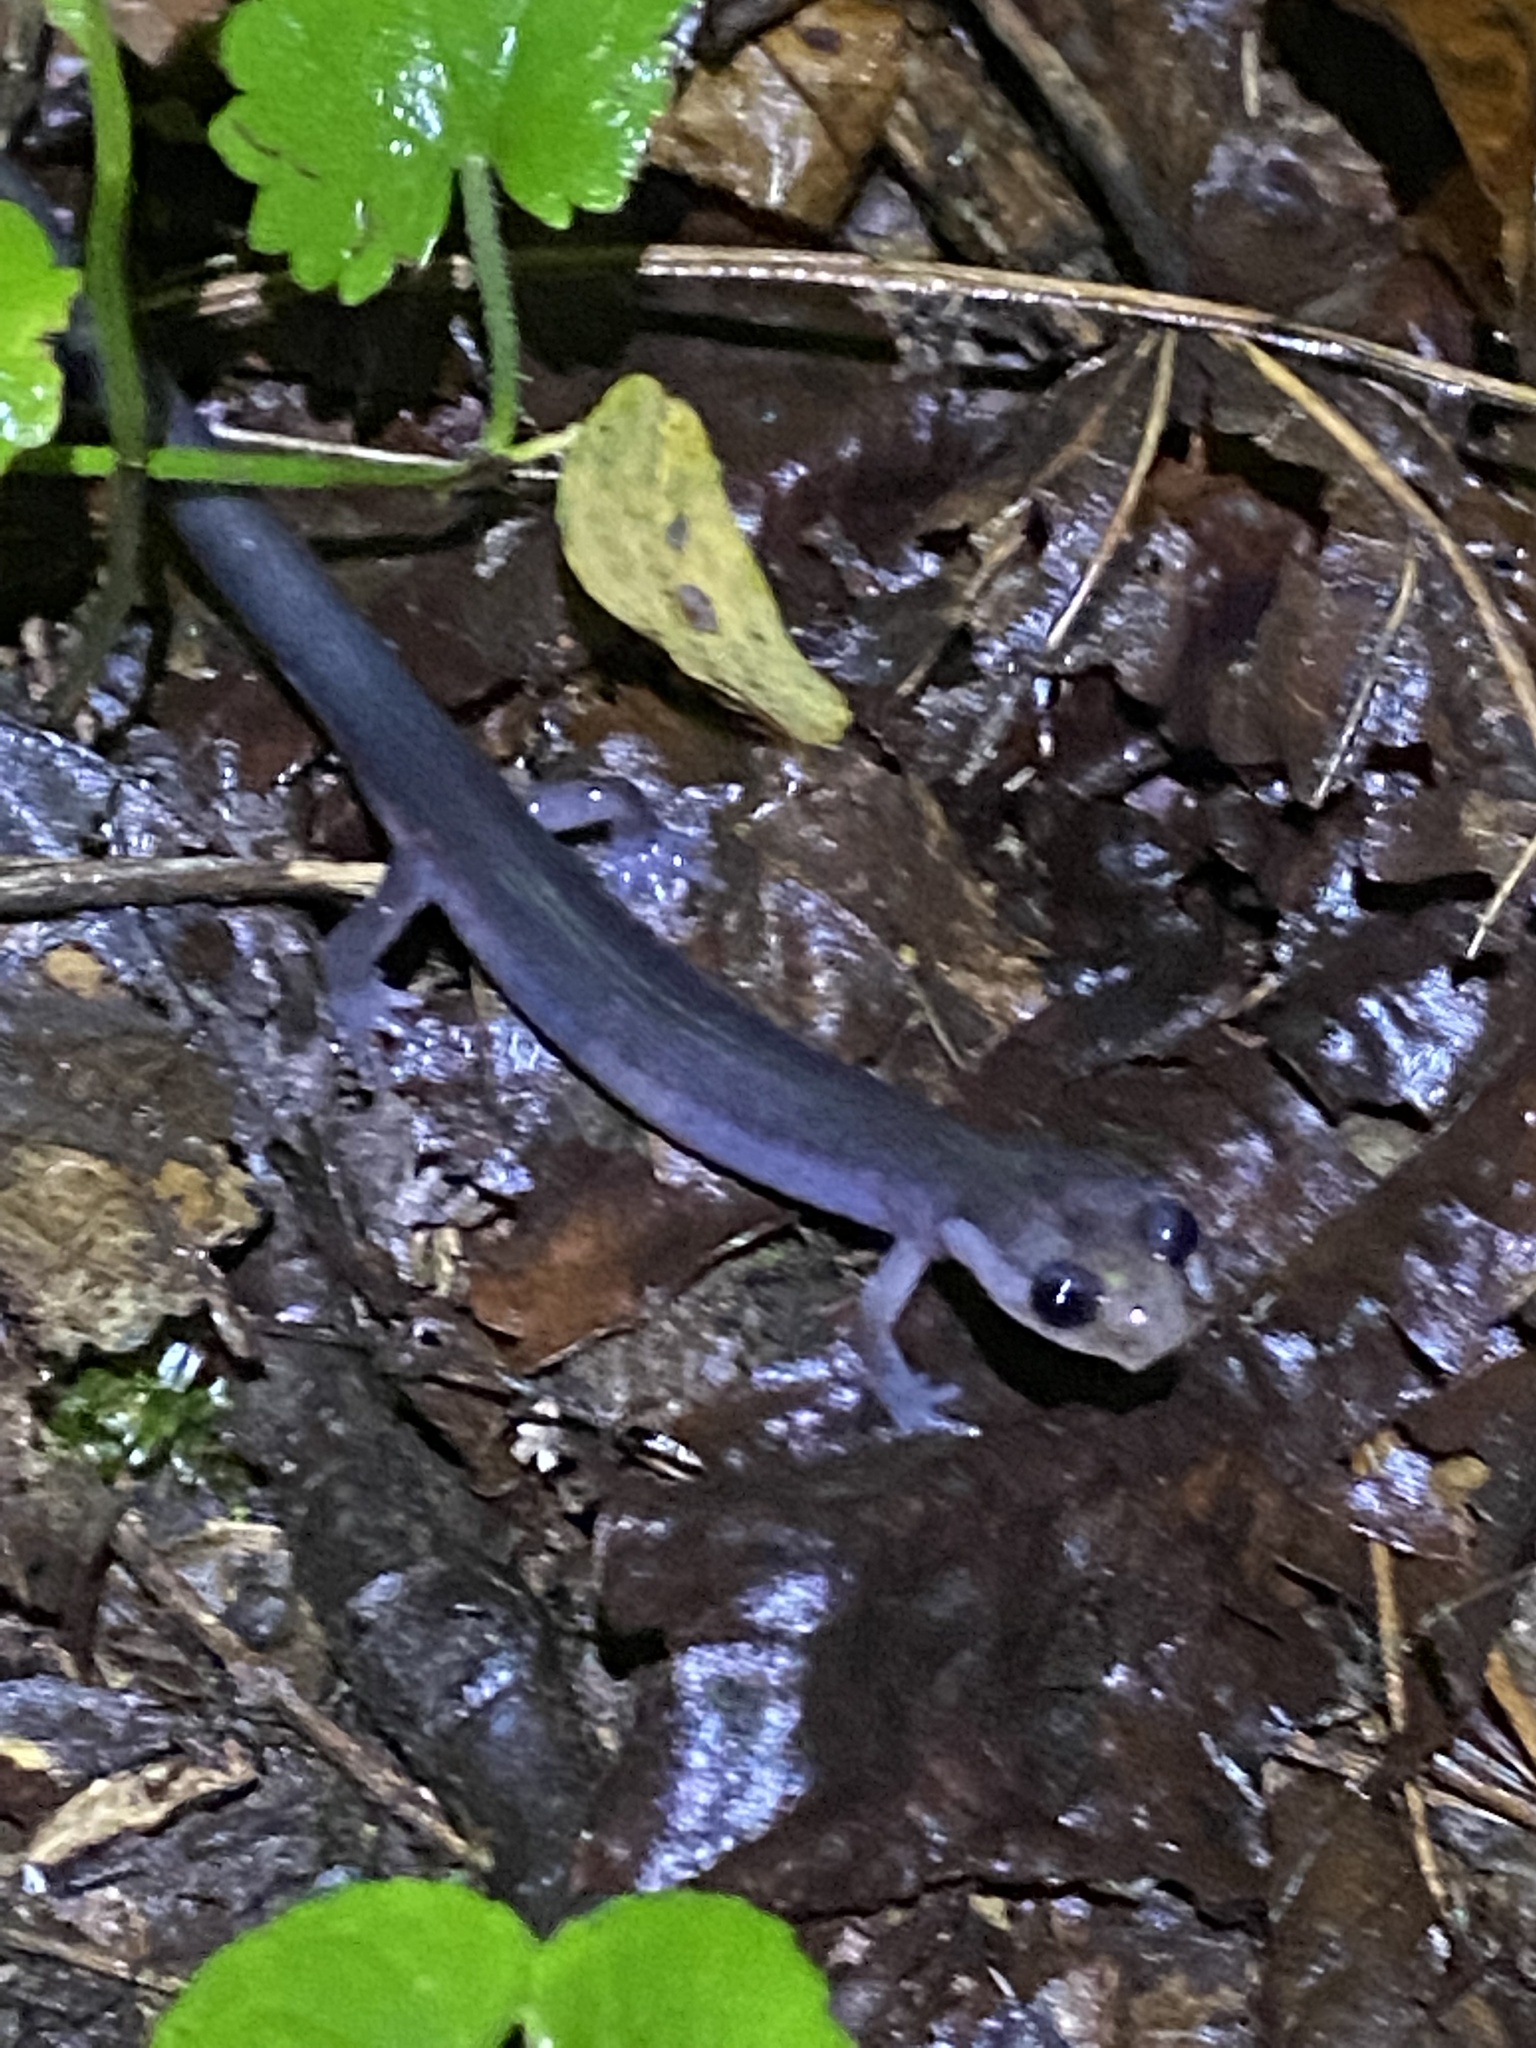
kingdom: Animalia
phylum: Chordata
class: Amphibia
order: Caudata
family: Plethodontidae
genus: Plethodon
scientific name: Plethodon montanus
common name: Northern gray-cheeked salamander
